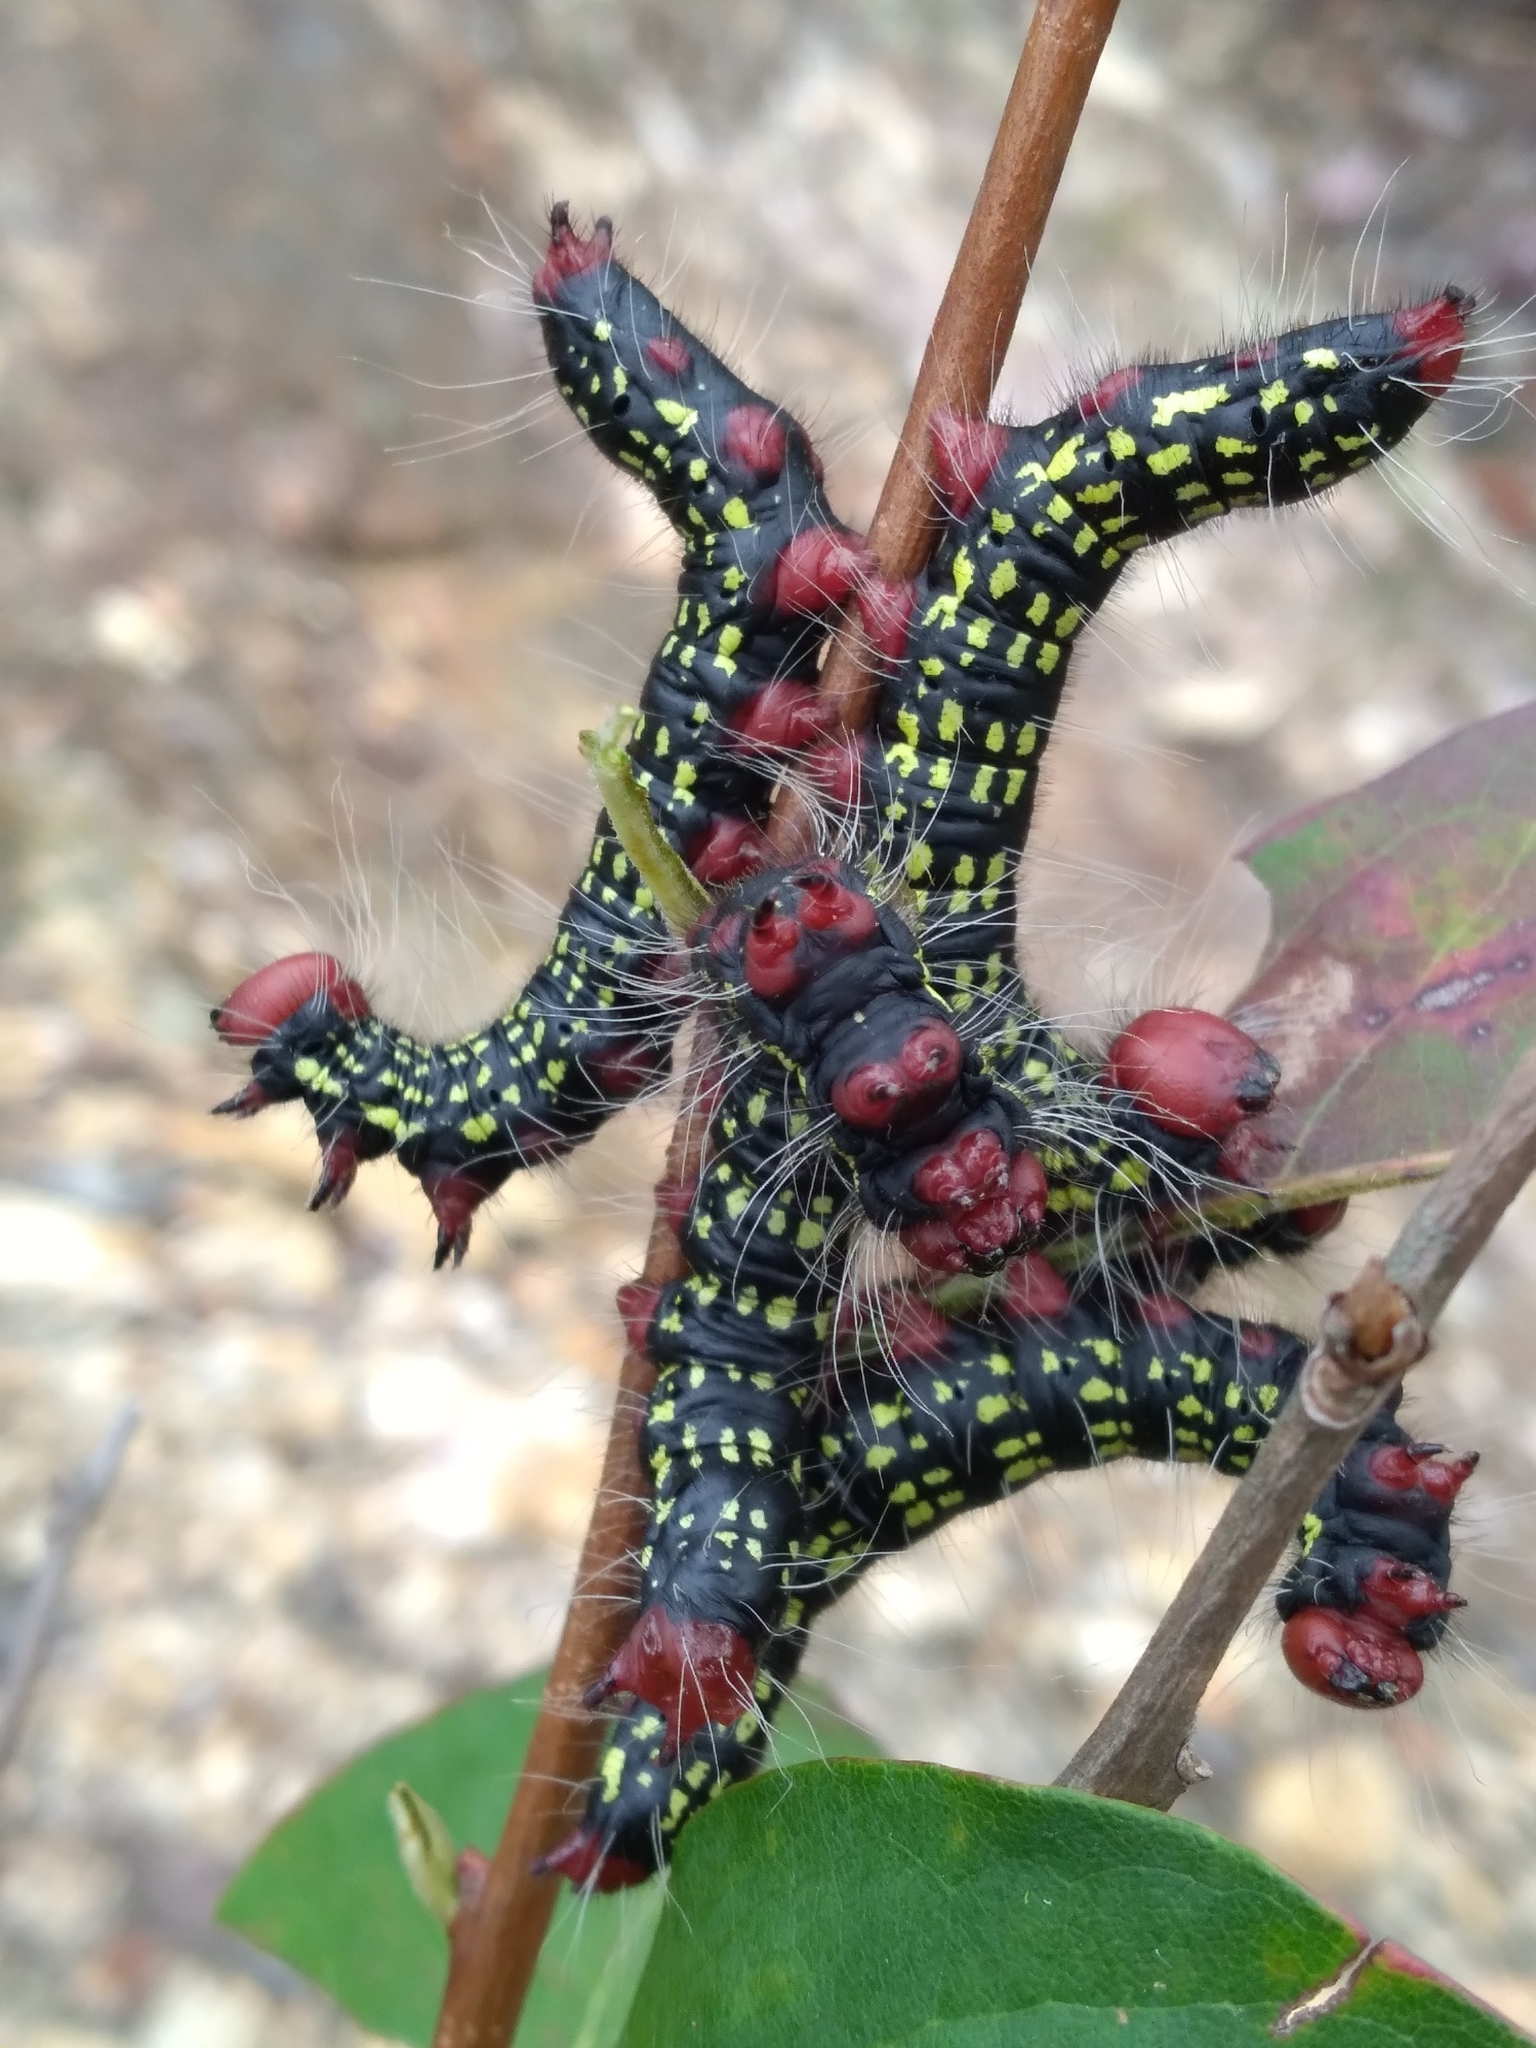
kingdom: Animalia
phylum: Arthropoda
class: Insecta
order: Lepidoptera
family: Notodontidae
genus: Datana
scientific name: Datana major
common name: Azalea caterpillar
